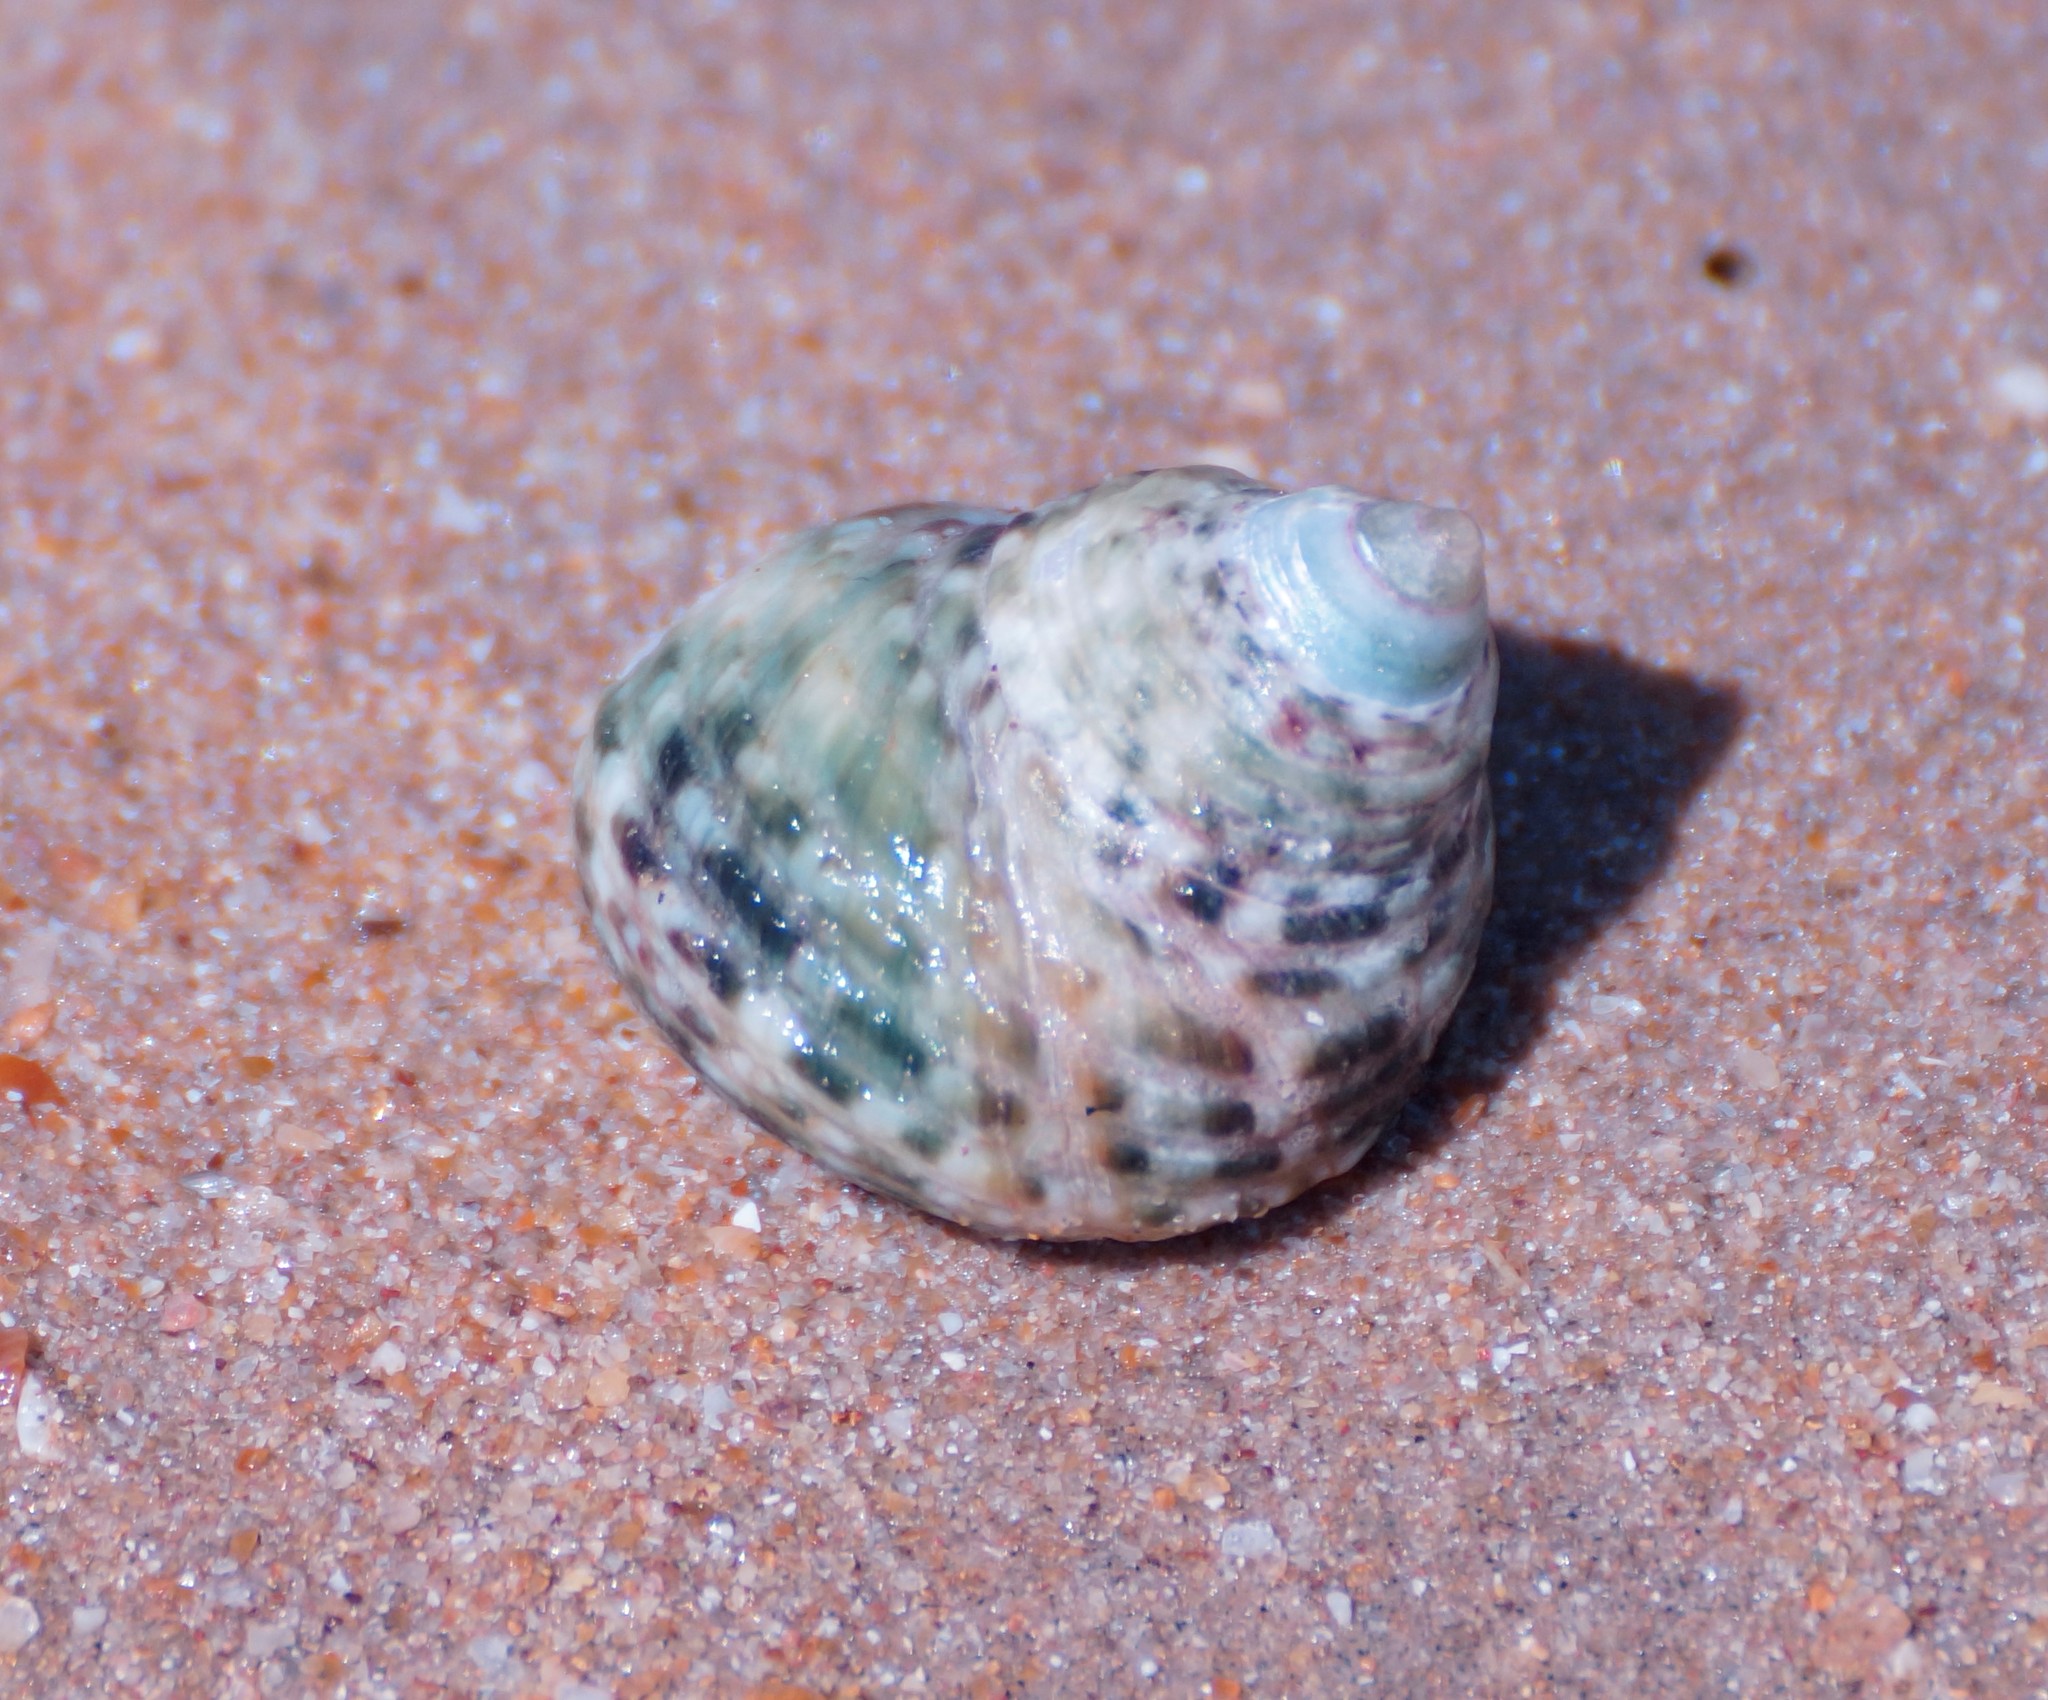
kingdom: Animalia
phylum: Mollusca
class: Gastropoda
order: Trochida
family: Trochidae
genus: Monodonta
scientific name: Monodonta labio
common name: Labio
